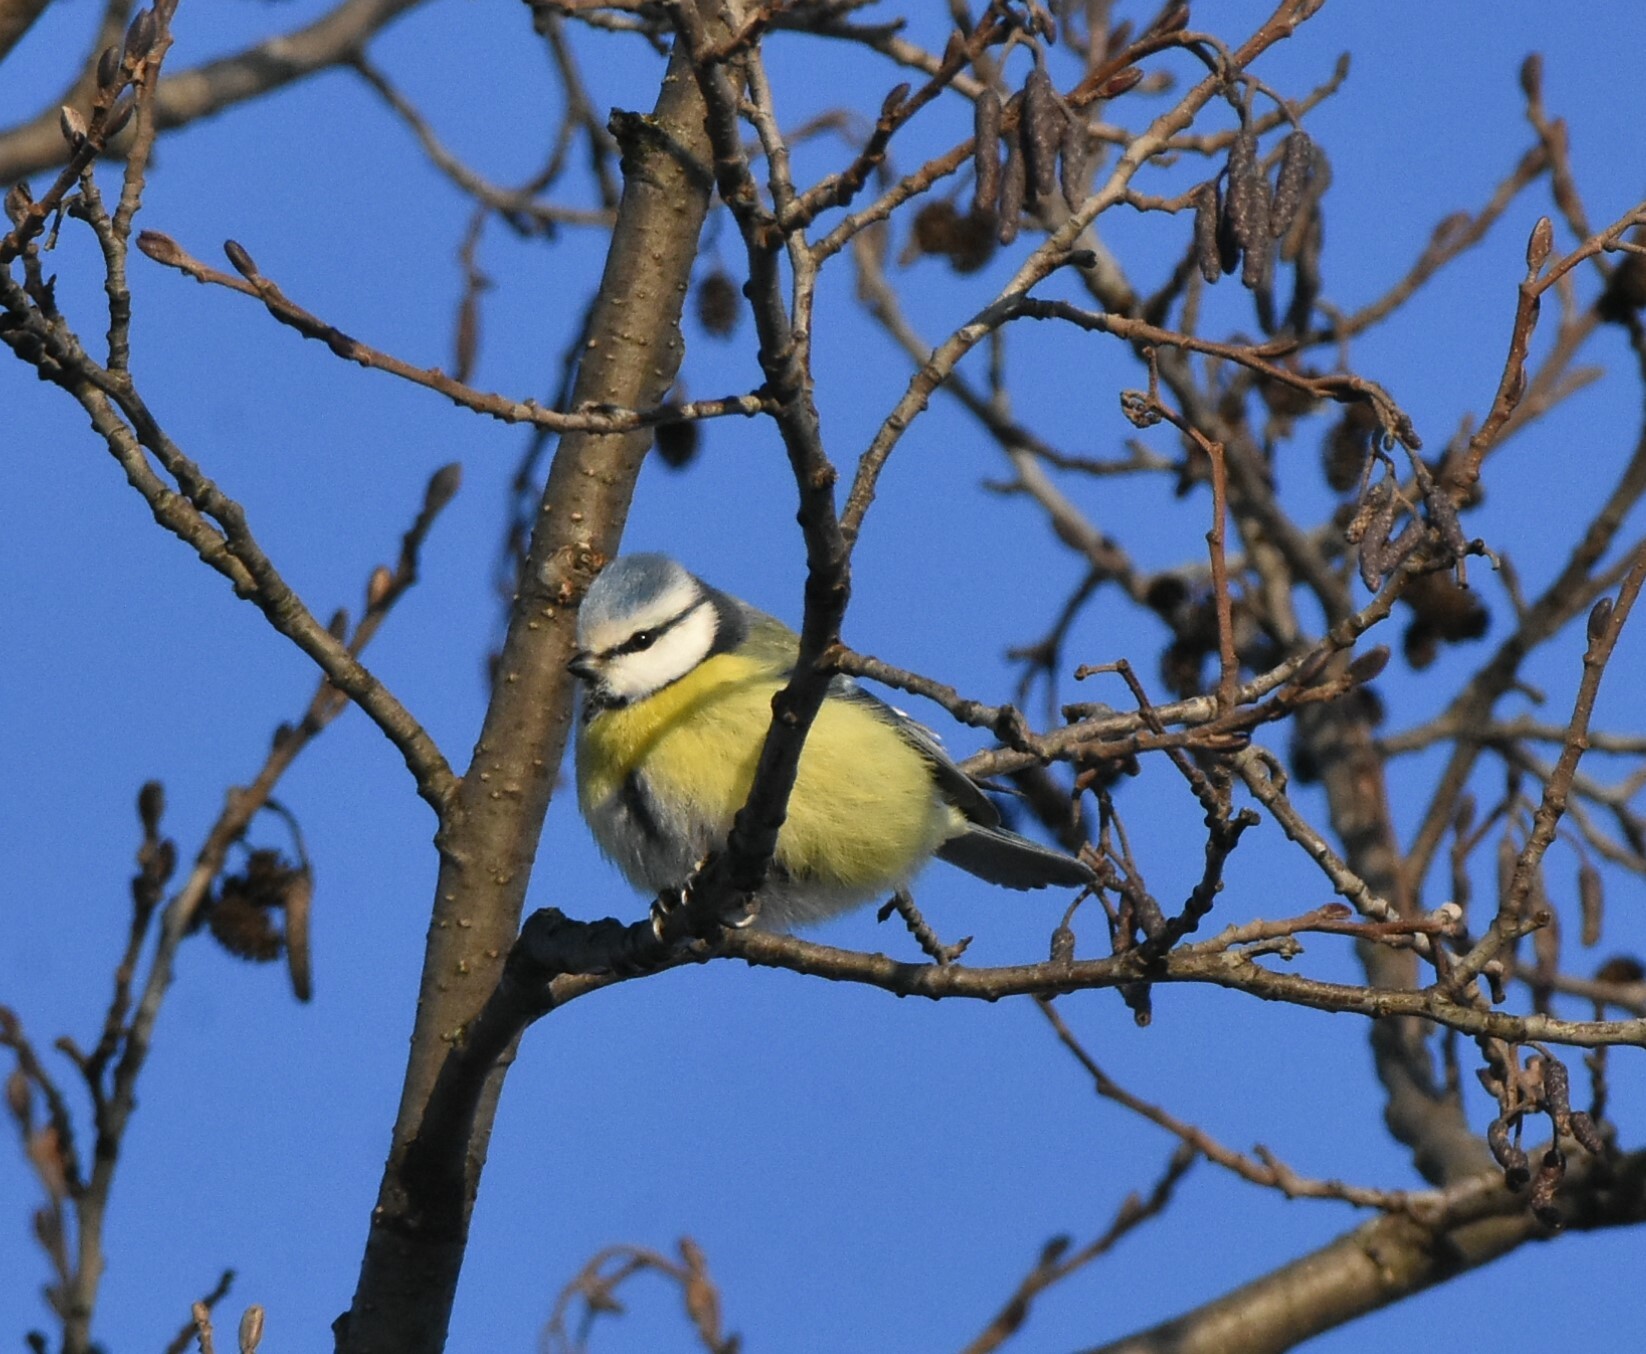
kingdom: Animalia
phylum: Chordata
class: Aves
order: Passeriformes
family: Paridae
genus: Cyanistes
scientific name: Cyanistes caeruleus
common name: Eurasian blue tit
